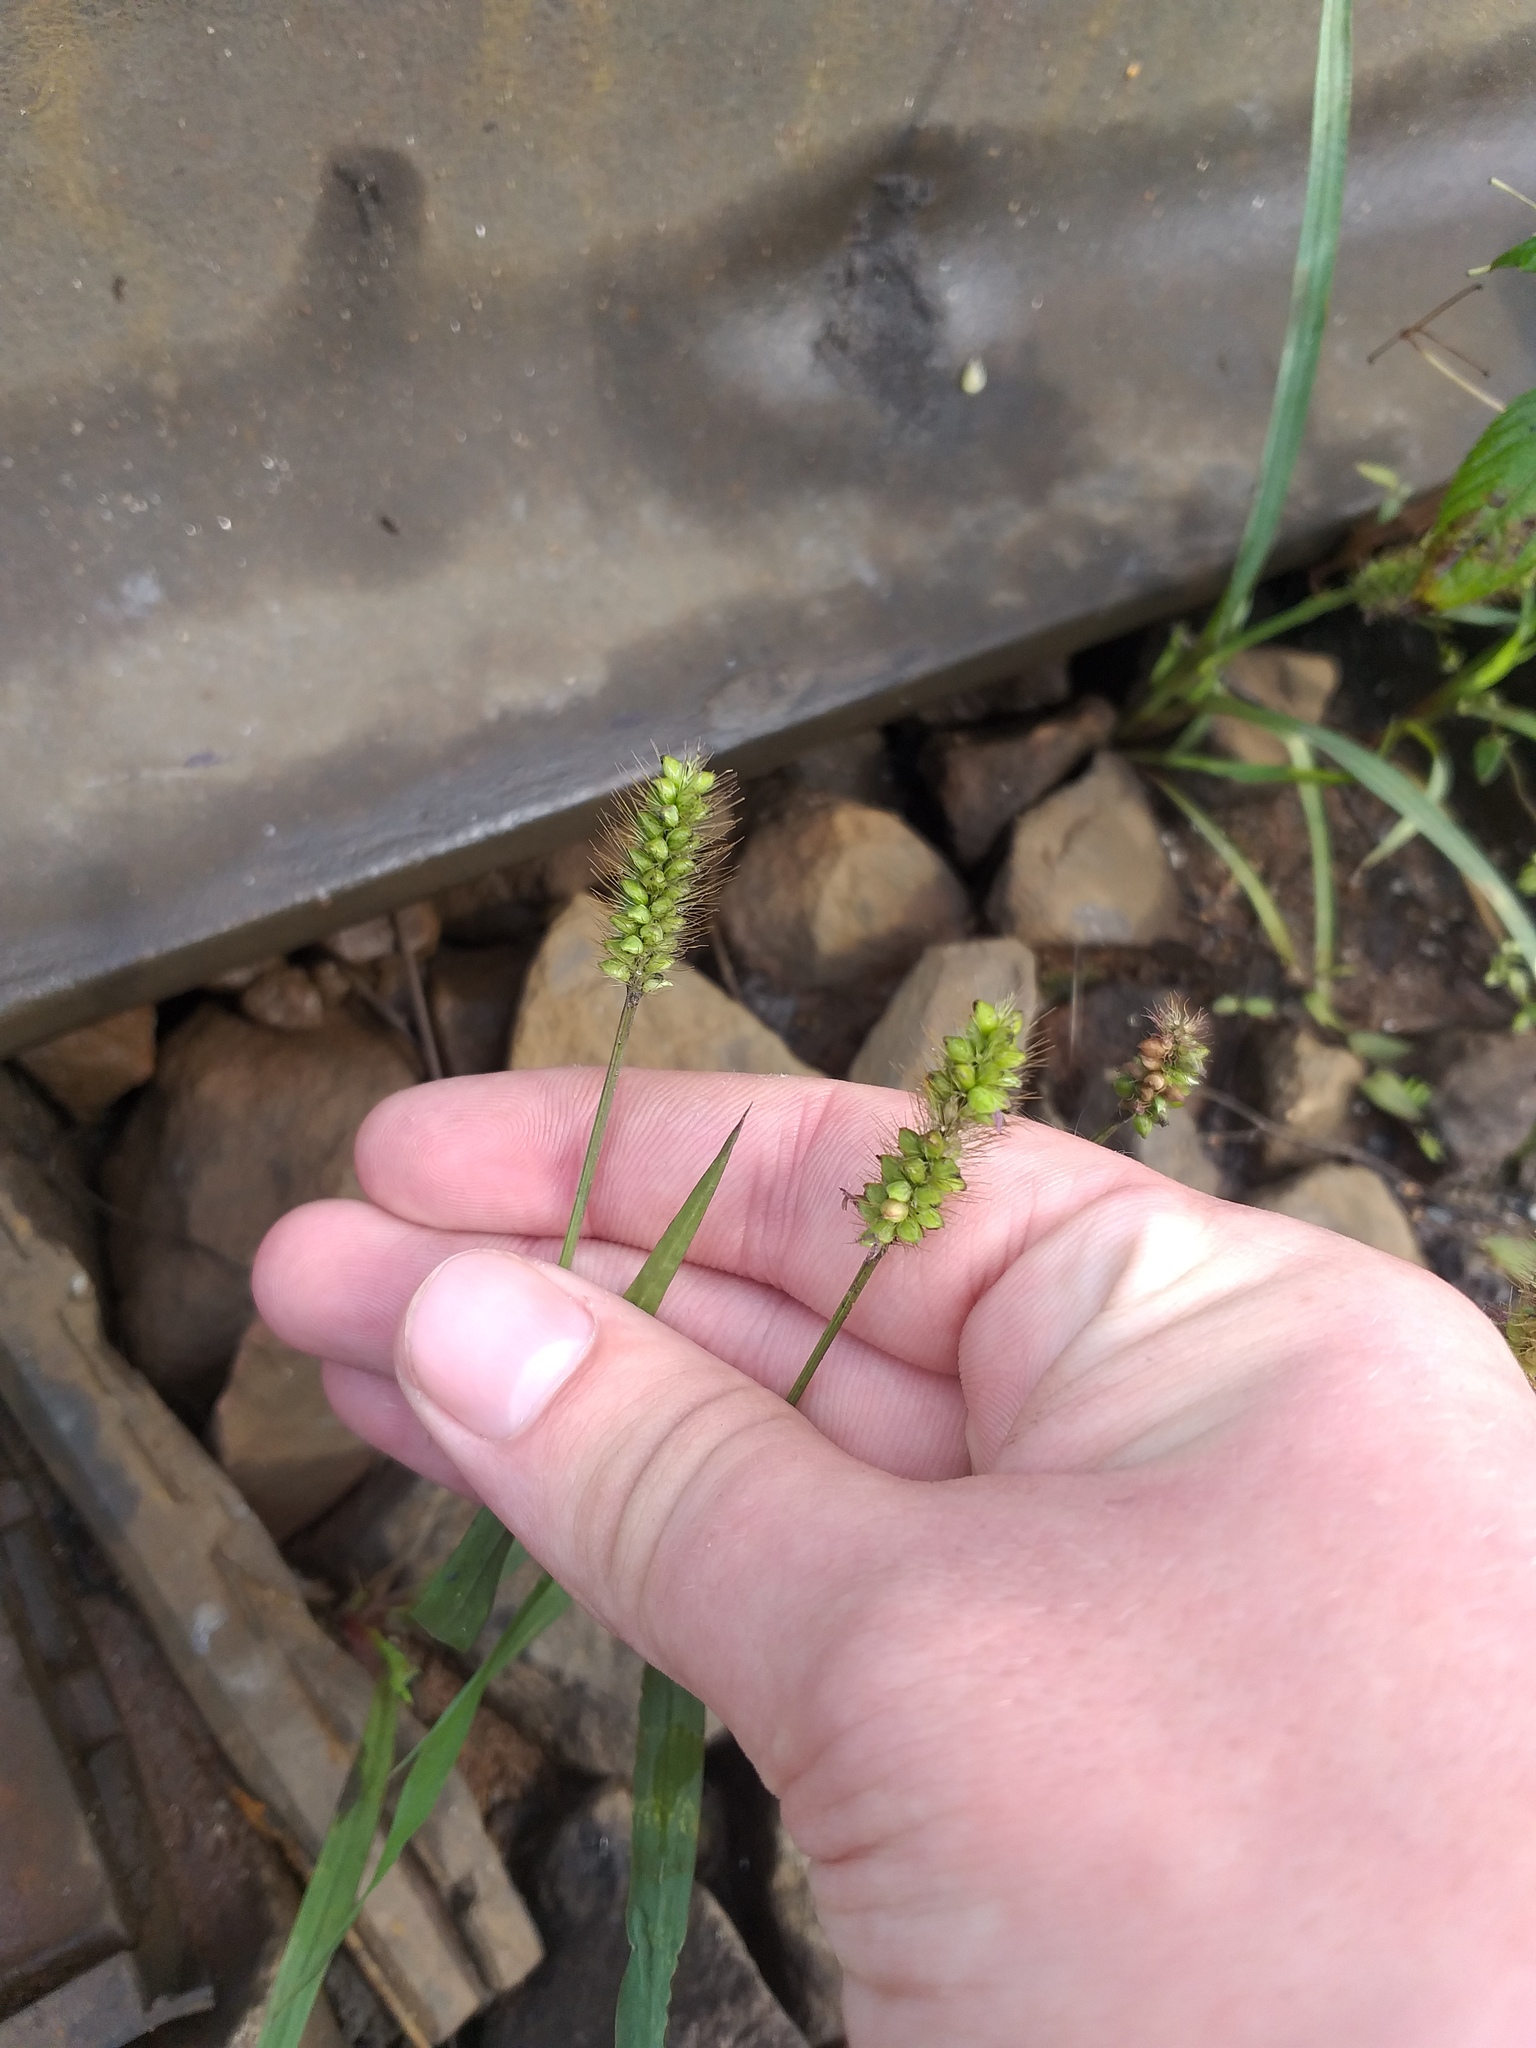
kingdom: Plantae
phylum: Tracheophyta
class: Liliopsida
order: Poales
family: Poaceae
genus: Setaria
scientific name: Setaria pumila
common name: Yellow bristle-grass
